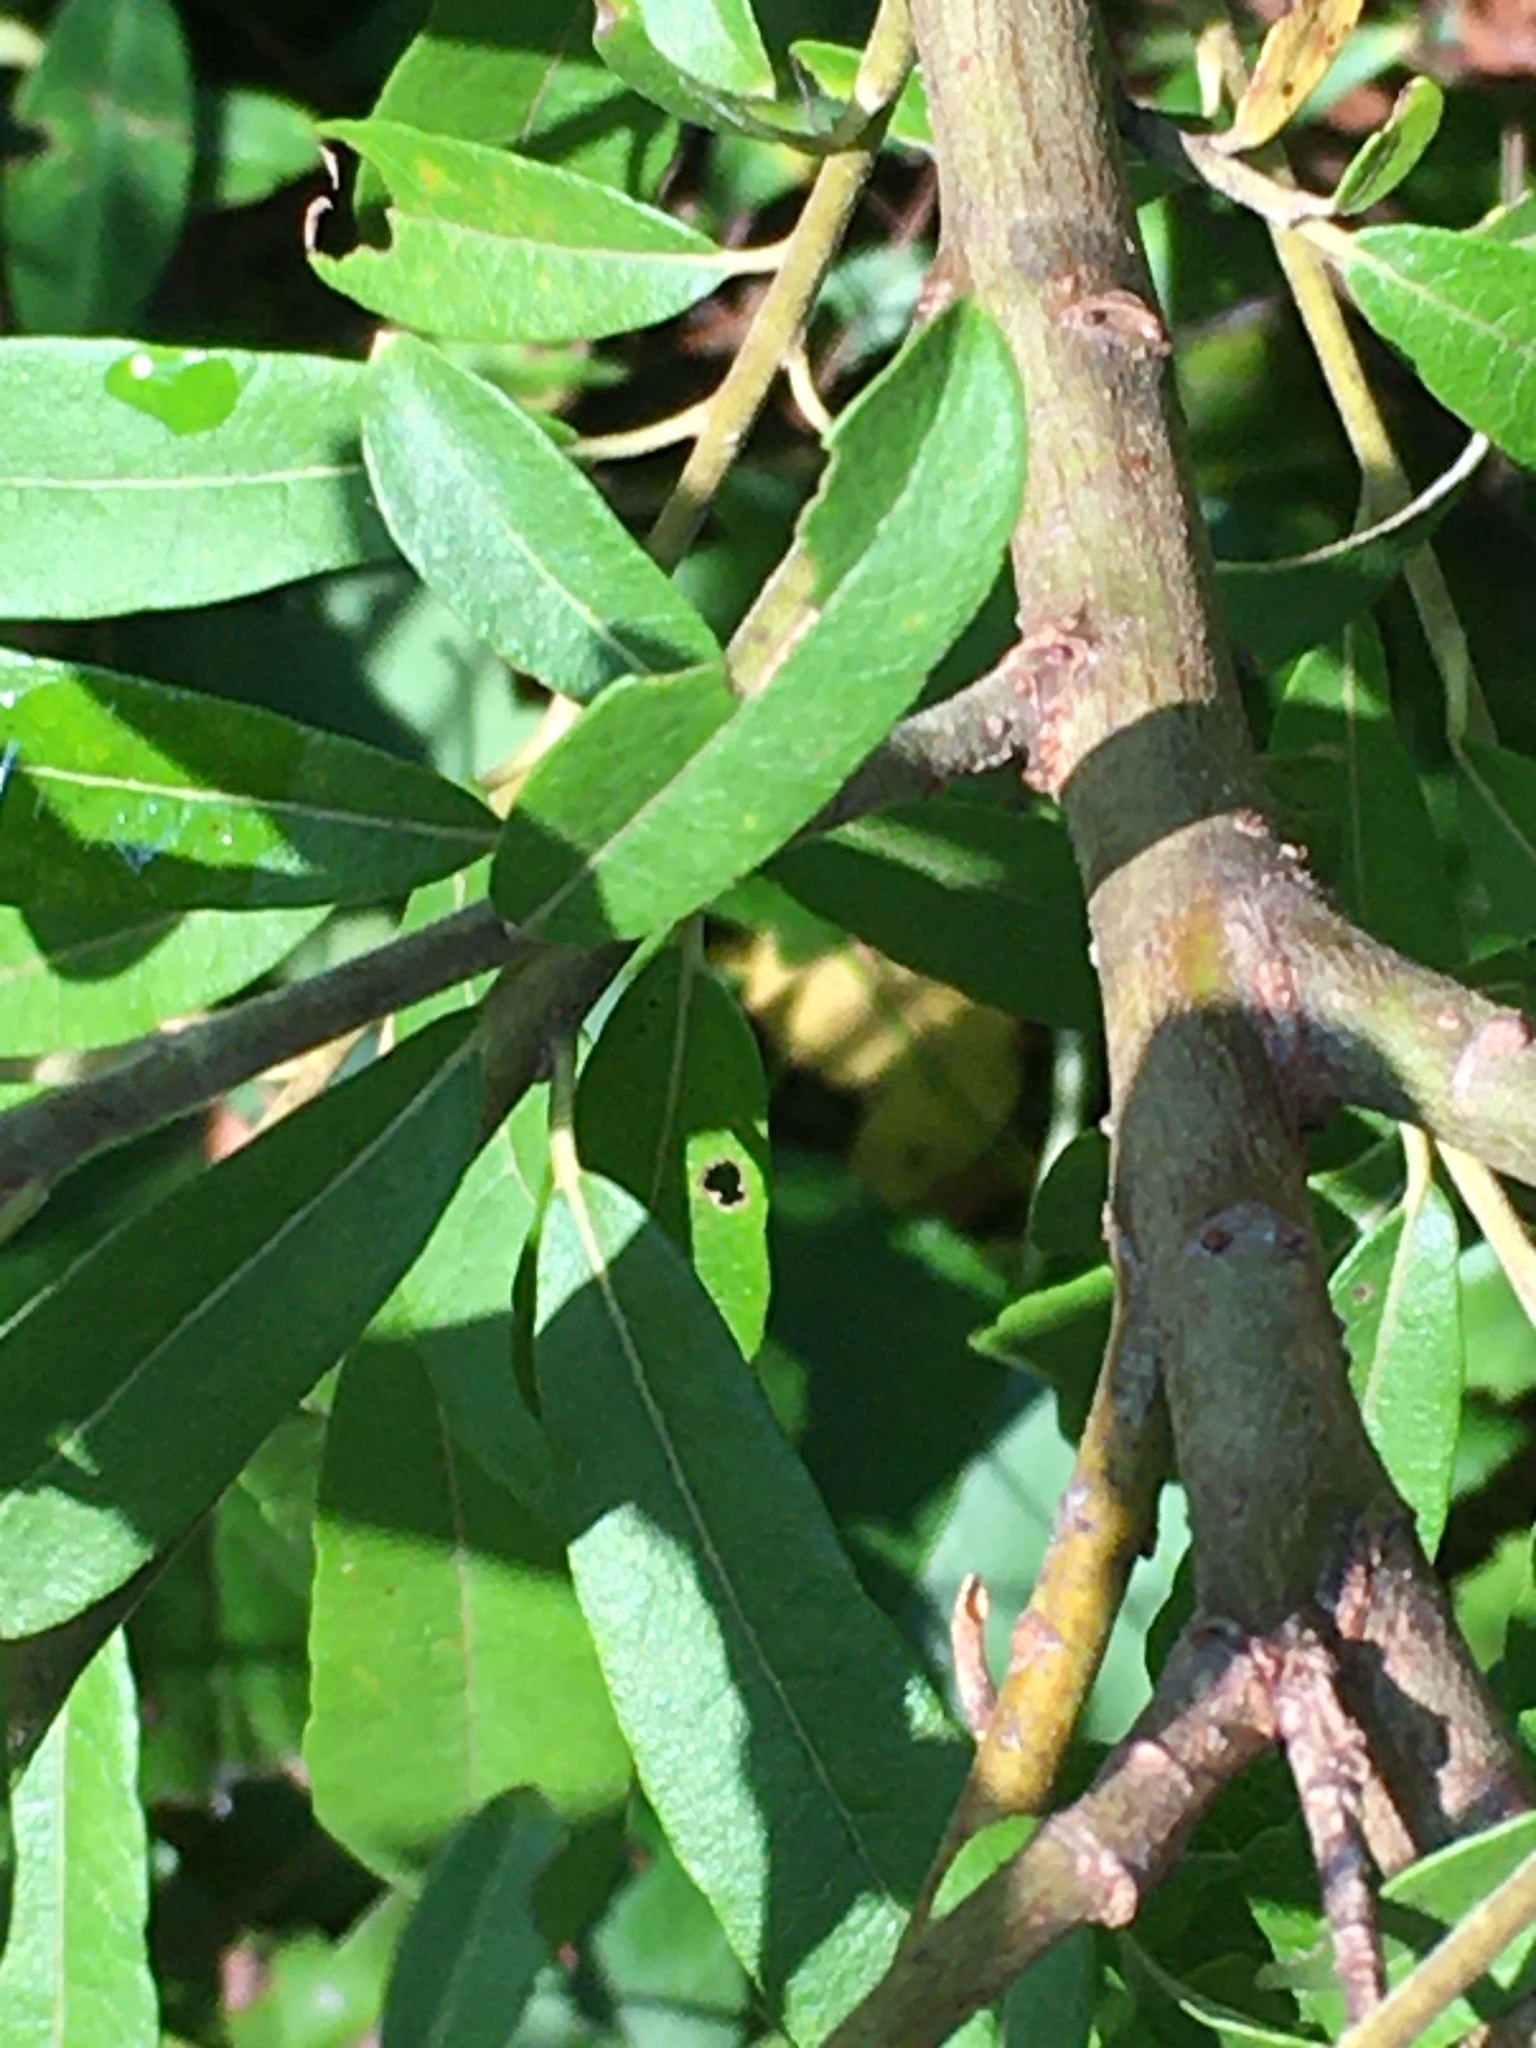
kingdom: Plantae
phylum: Tracheophyta
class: Magnoliopsida
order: Malpighiales
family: Salicaceae
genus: Salix
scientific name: Salix humilis
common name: Prairie willow
